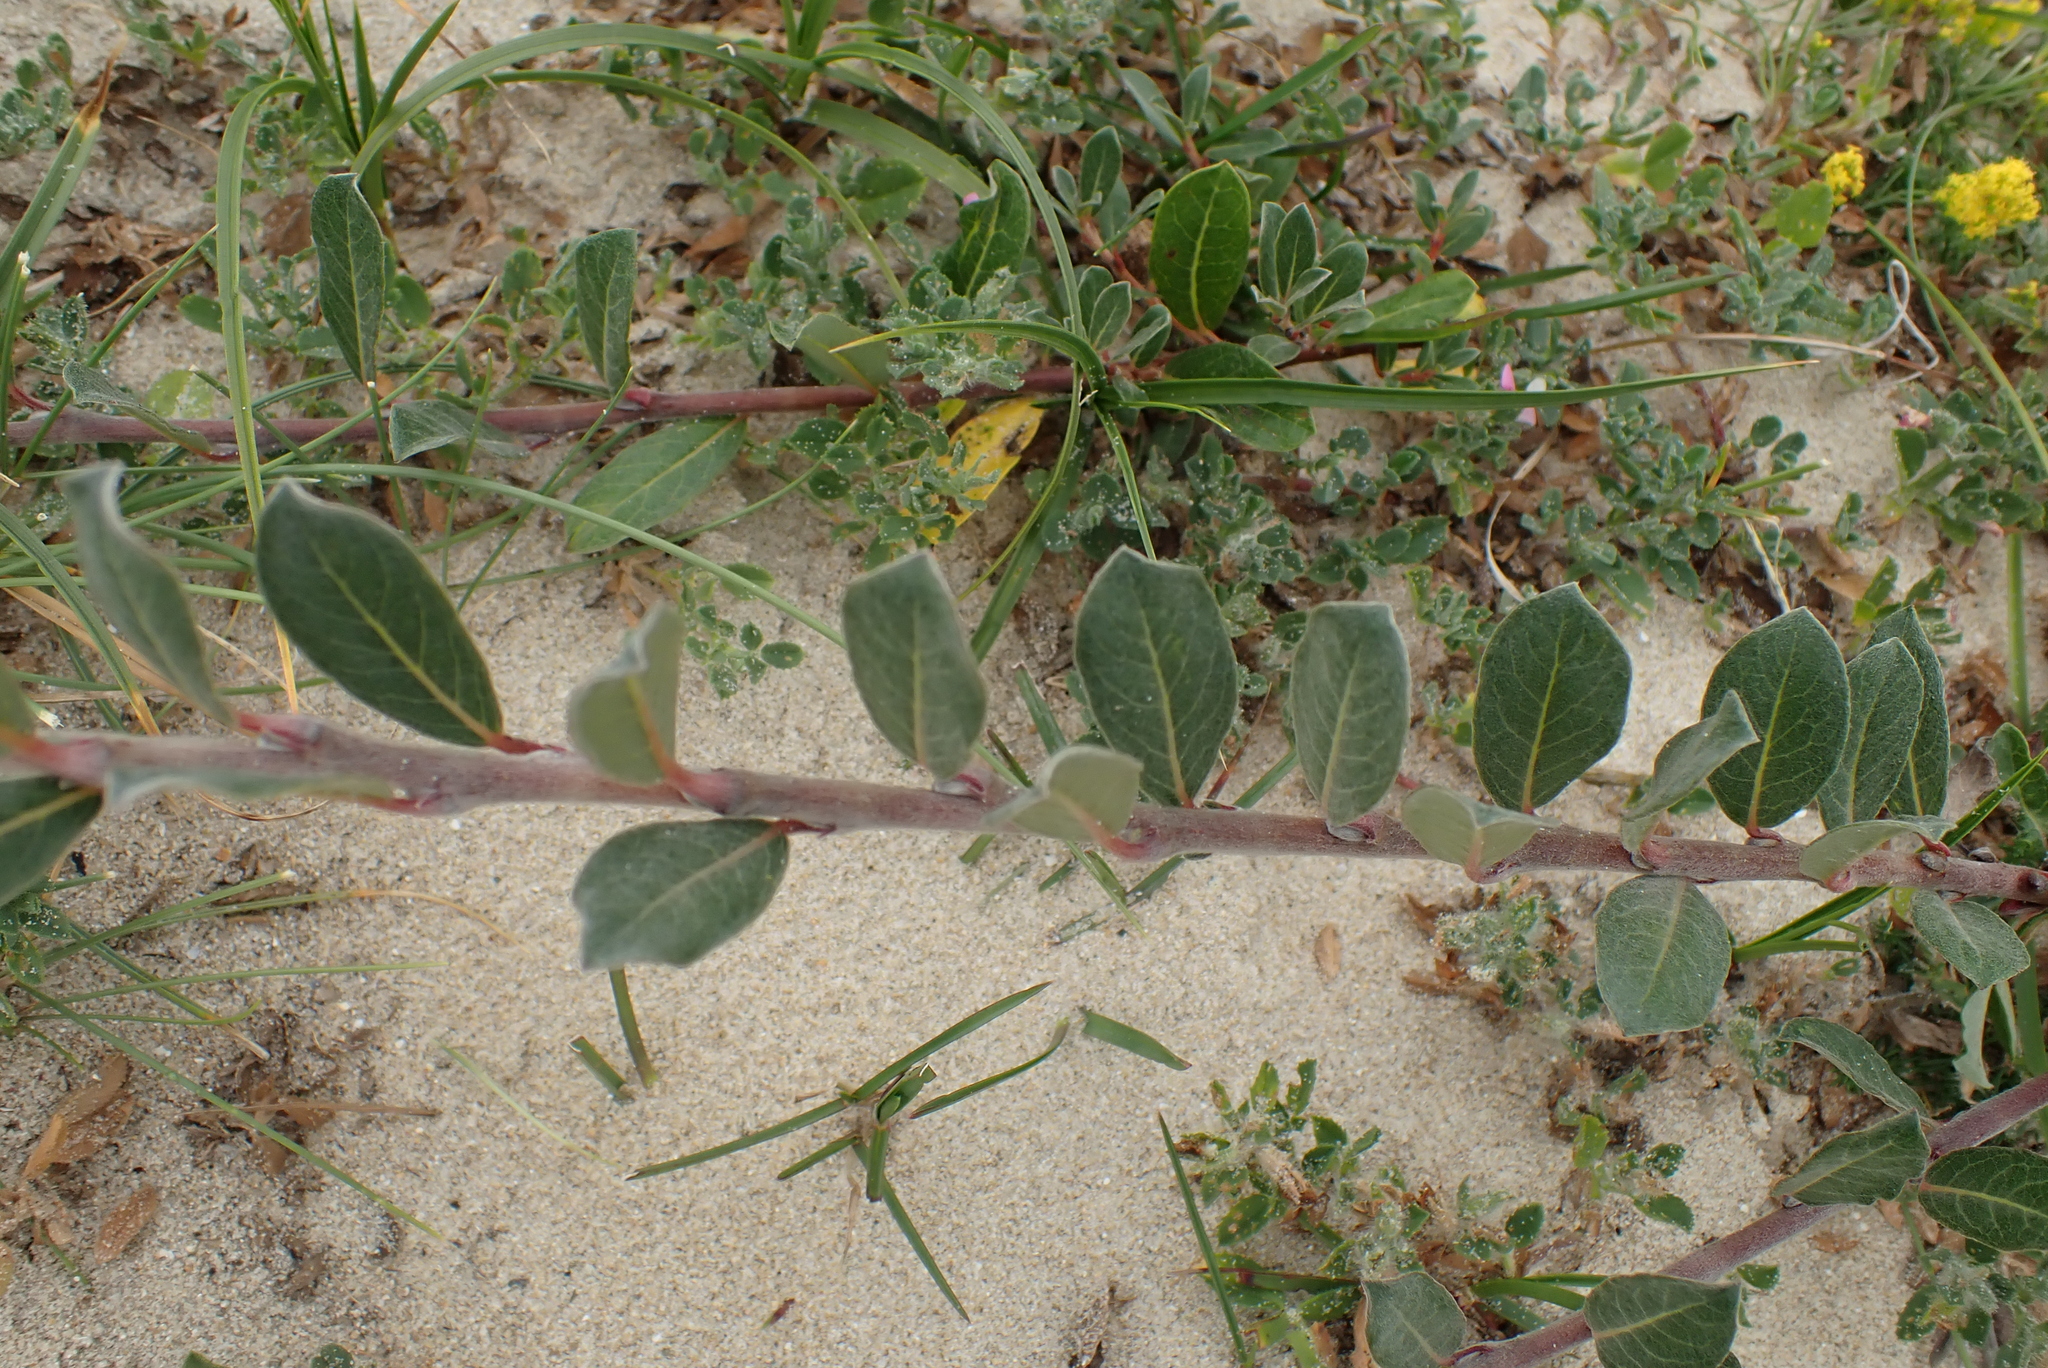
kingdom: Plantae
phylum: Tracheophyta
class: Magnoliopsida
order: Malpighiales
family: Salicaceae
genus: Salix
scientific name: Salix repens
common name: Creeping willow
